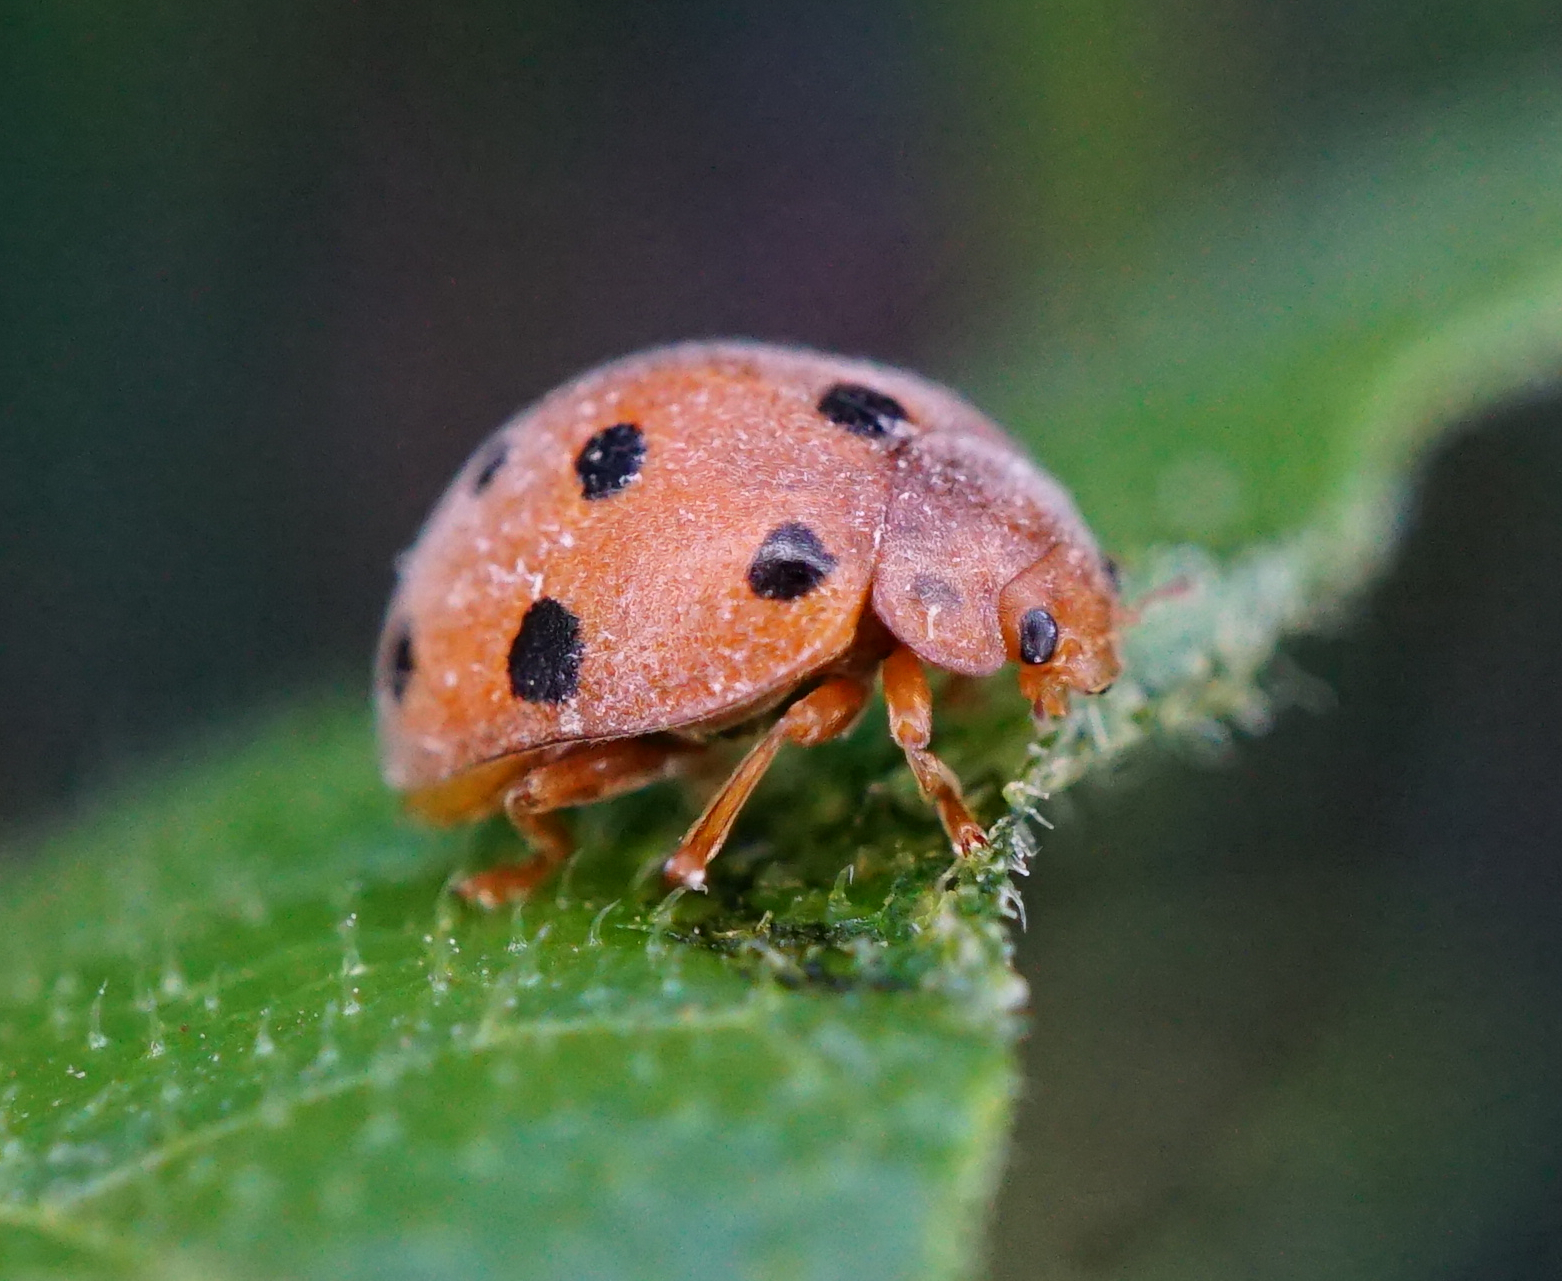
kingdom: Animalia
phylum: Arthropoda
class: Insecta
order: Coleoptera
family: Coccinellidae
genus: Henosepilachna
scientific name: Henosepilachna argus
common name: Bryony ladybird
